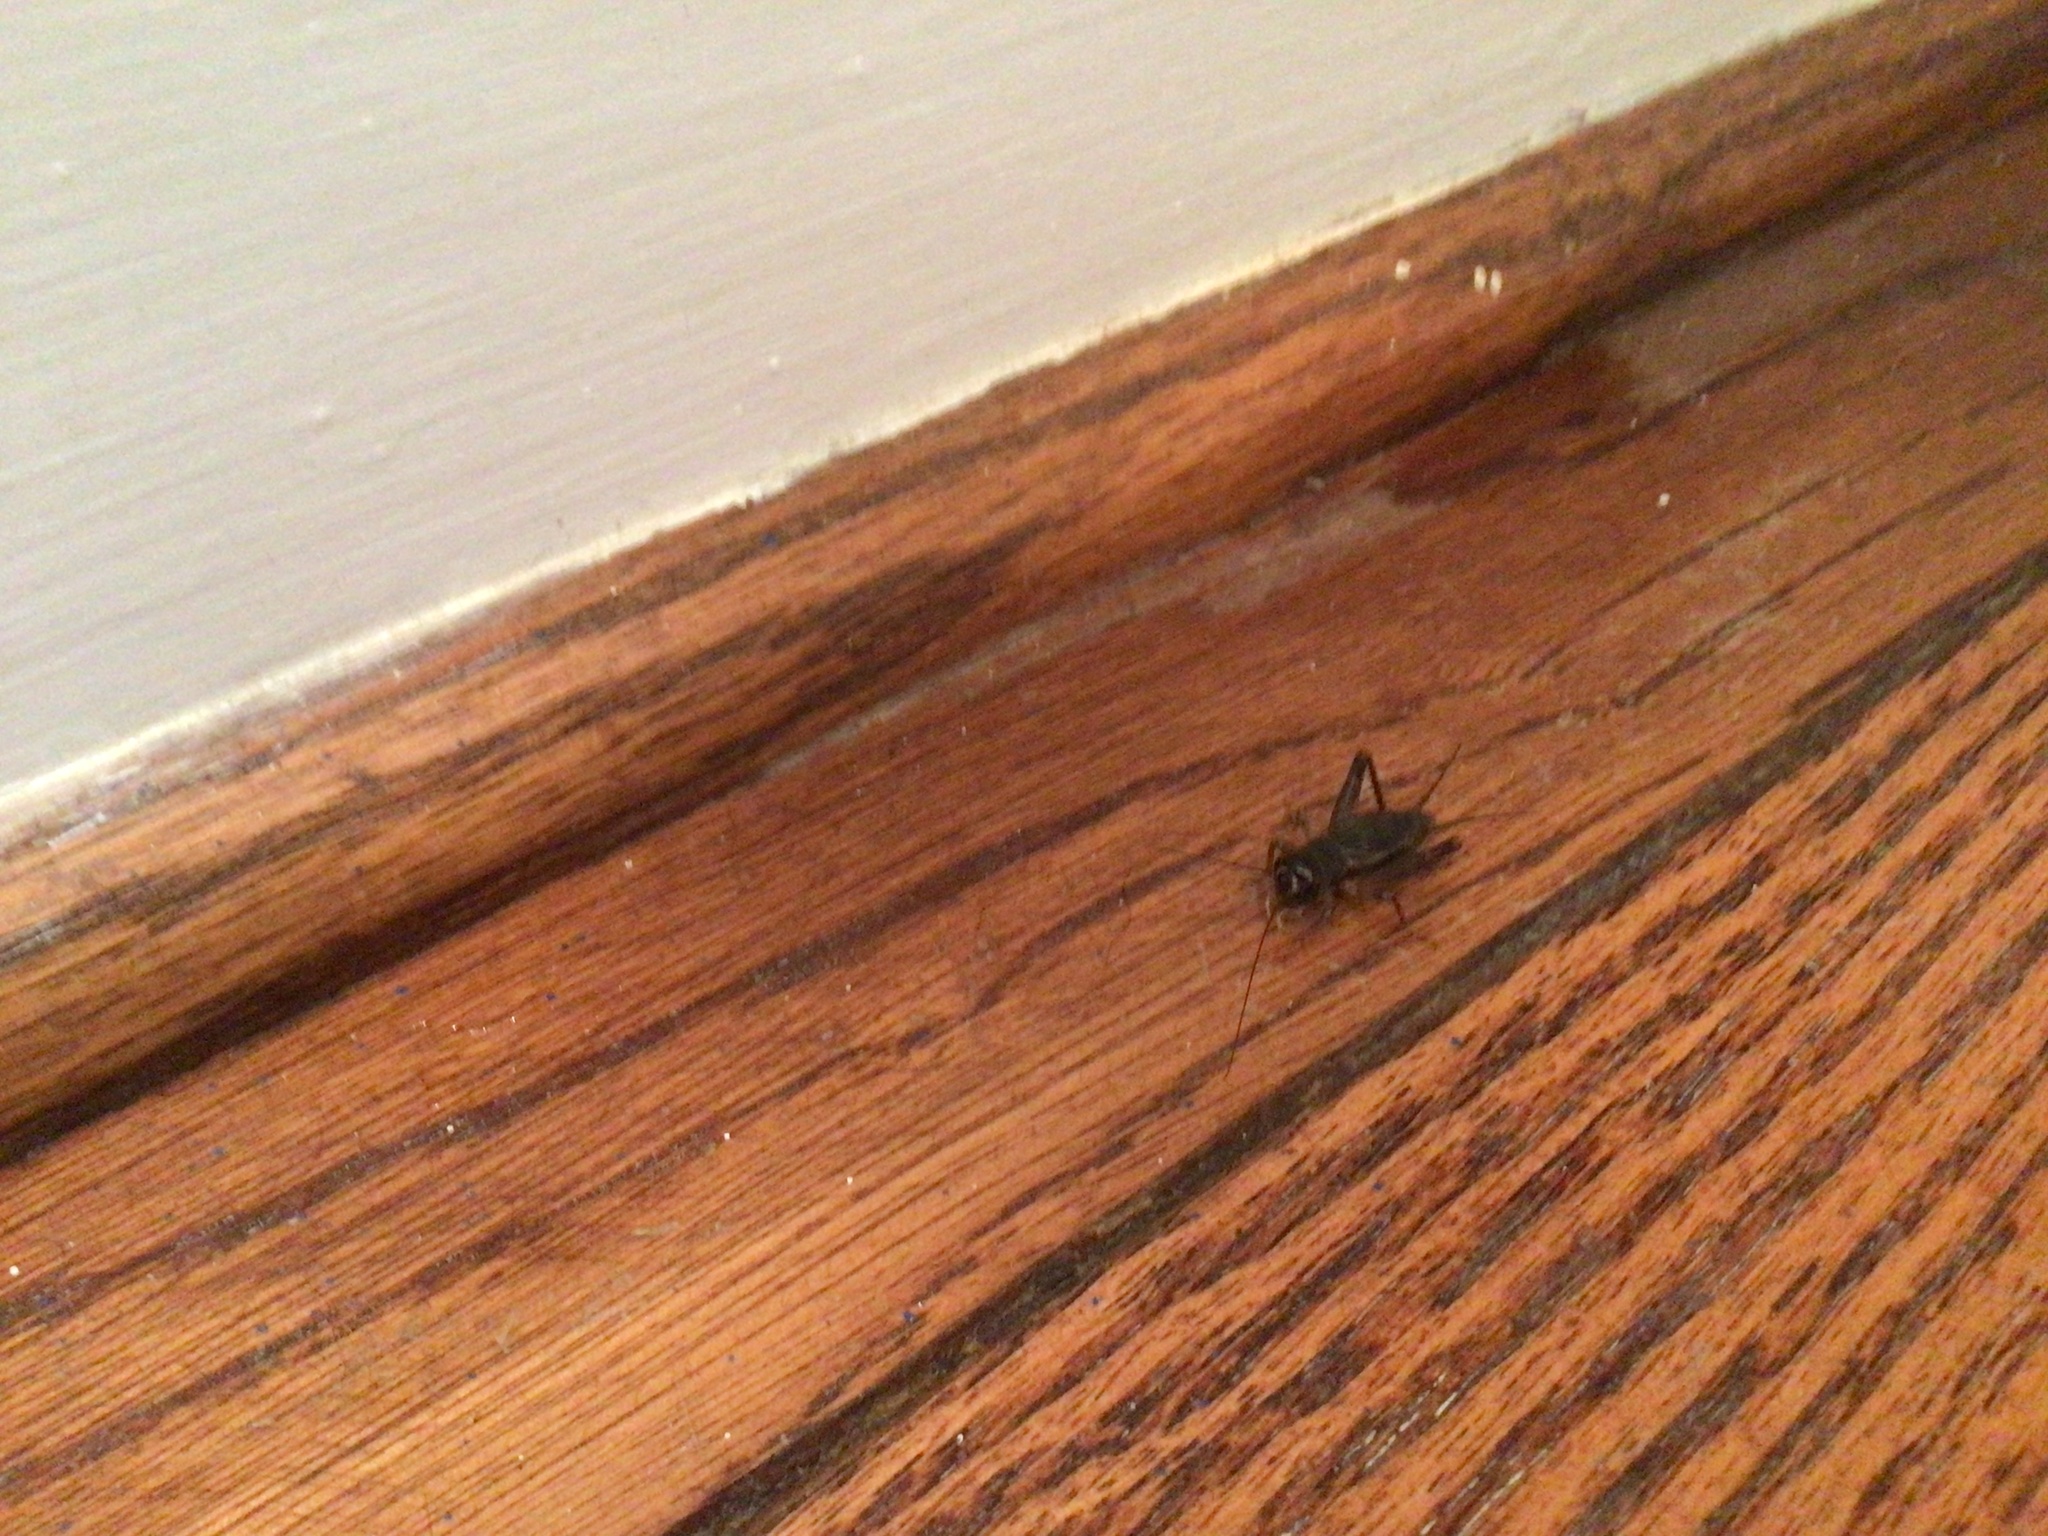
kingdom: Animalia
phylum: Arthropoda
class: Insecta
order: Orthoptera
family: Gryllidae
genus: Velarifictorus
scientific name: Velarifictorus micado
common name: Japanese burrowing cricket
